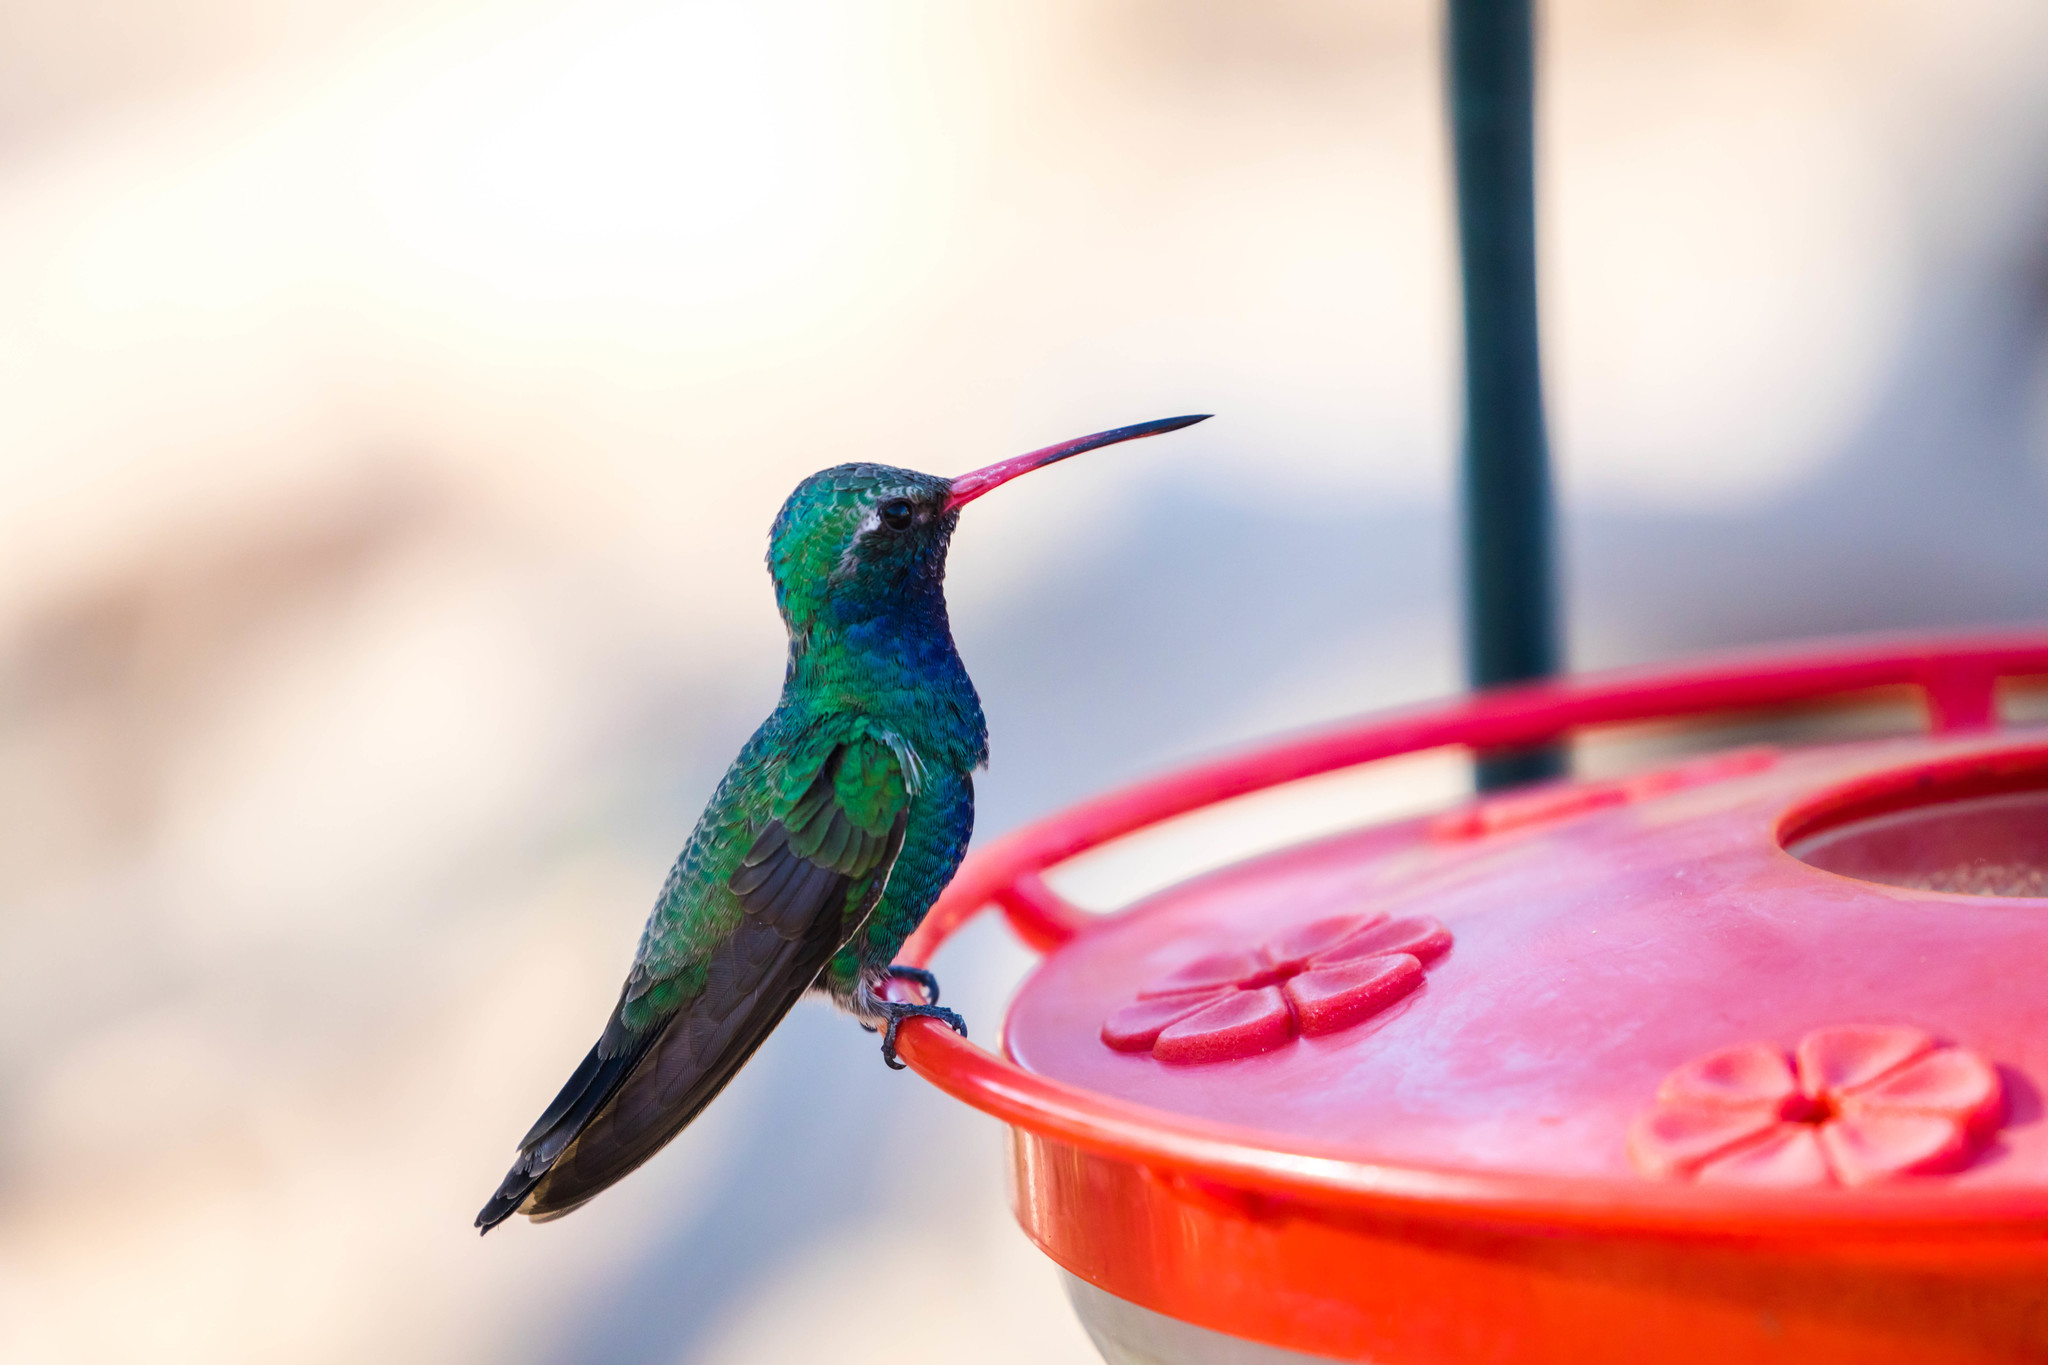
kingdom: Animalia
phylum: Chordata
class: Aves
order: Apodiformes
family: Trochilidae
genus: Cynanthus
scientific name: Cynanthus latirostris
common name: Broad-billed hummingbird
